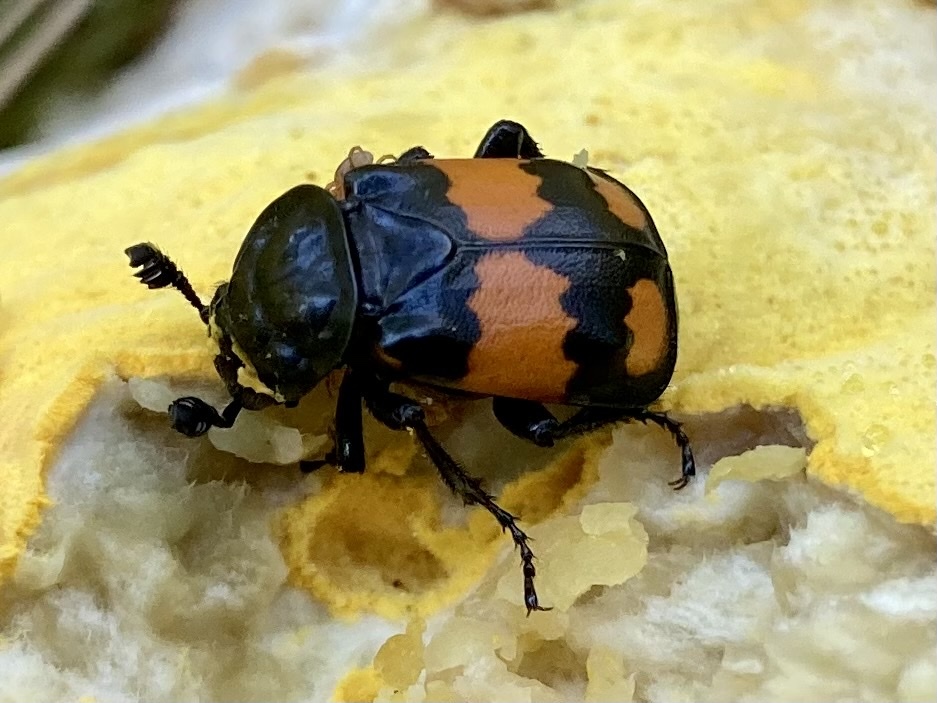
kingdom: Animalia
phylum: Arthropoda
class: Insecta
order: Coleoptera
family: Staphylinidae
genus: Nicrophorus
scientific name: Nicrophorus vespilloides
